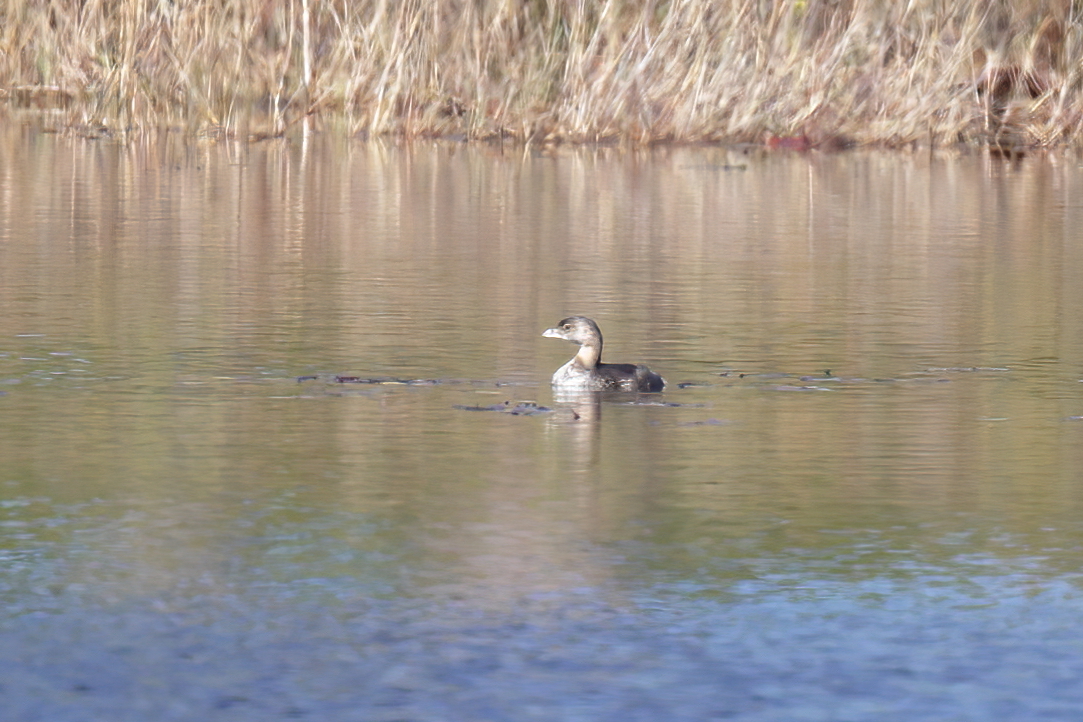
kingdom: Animalia
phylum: Chordata
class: Aves
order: Podicipediformes
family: Podicipedidae
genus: Podilymbus
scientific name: Podilymbus podiceps
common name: Pied-billed grebe
